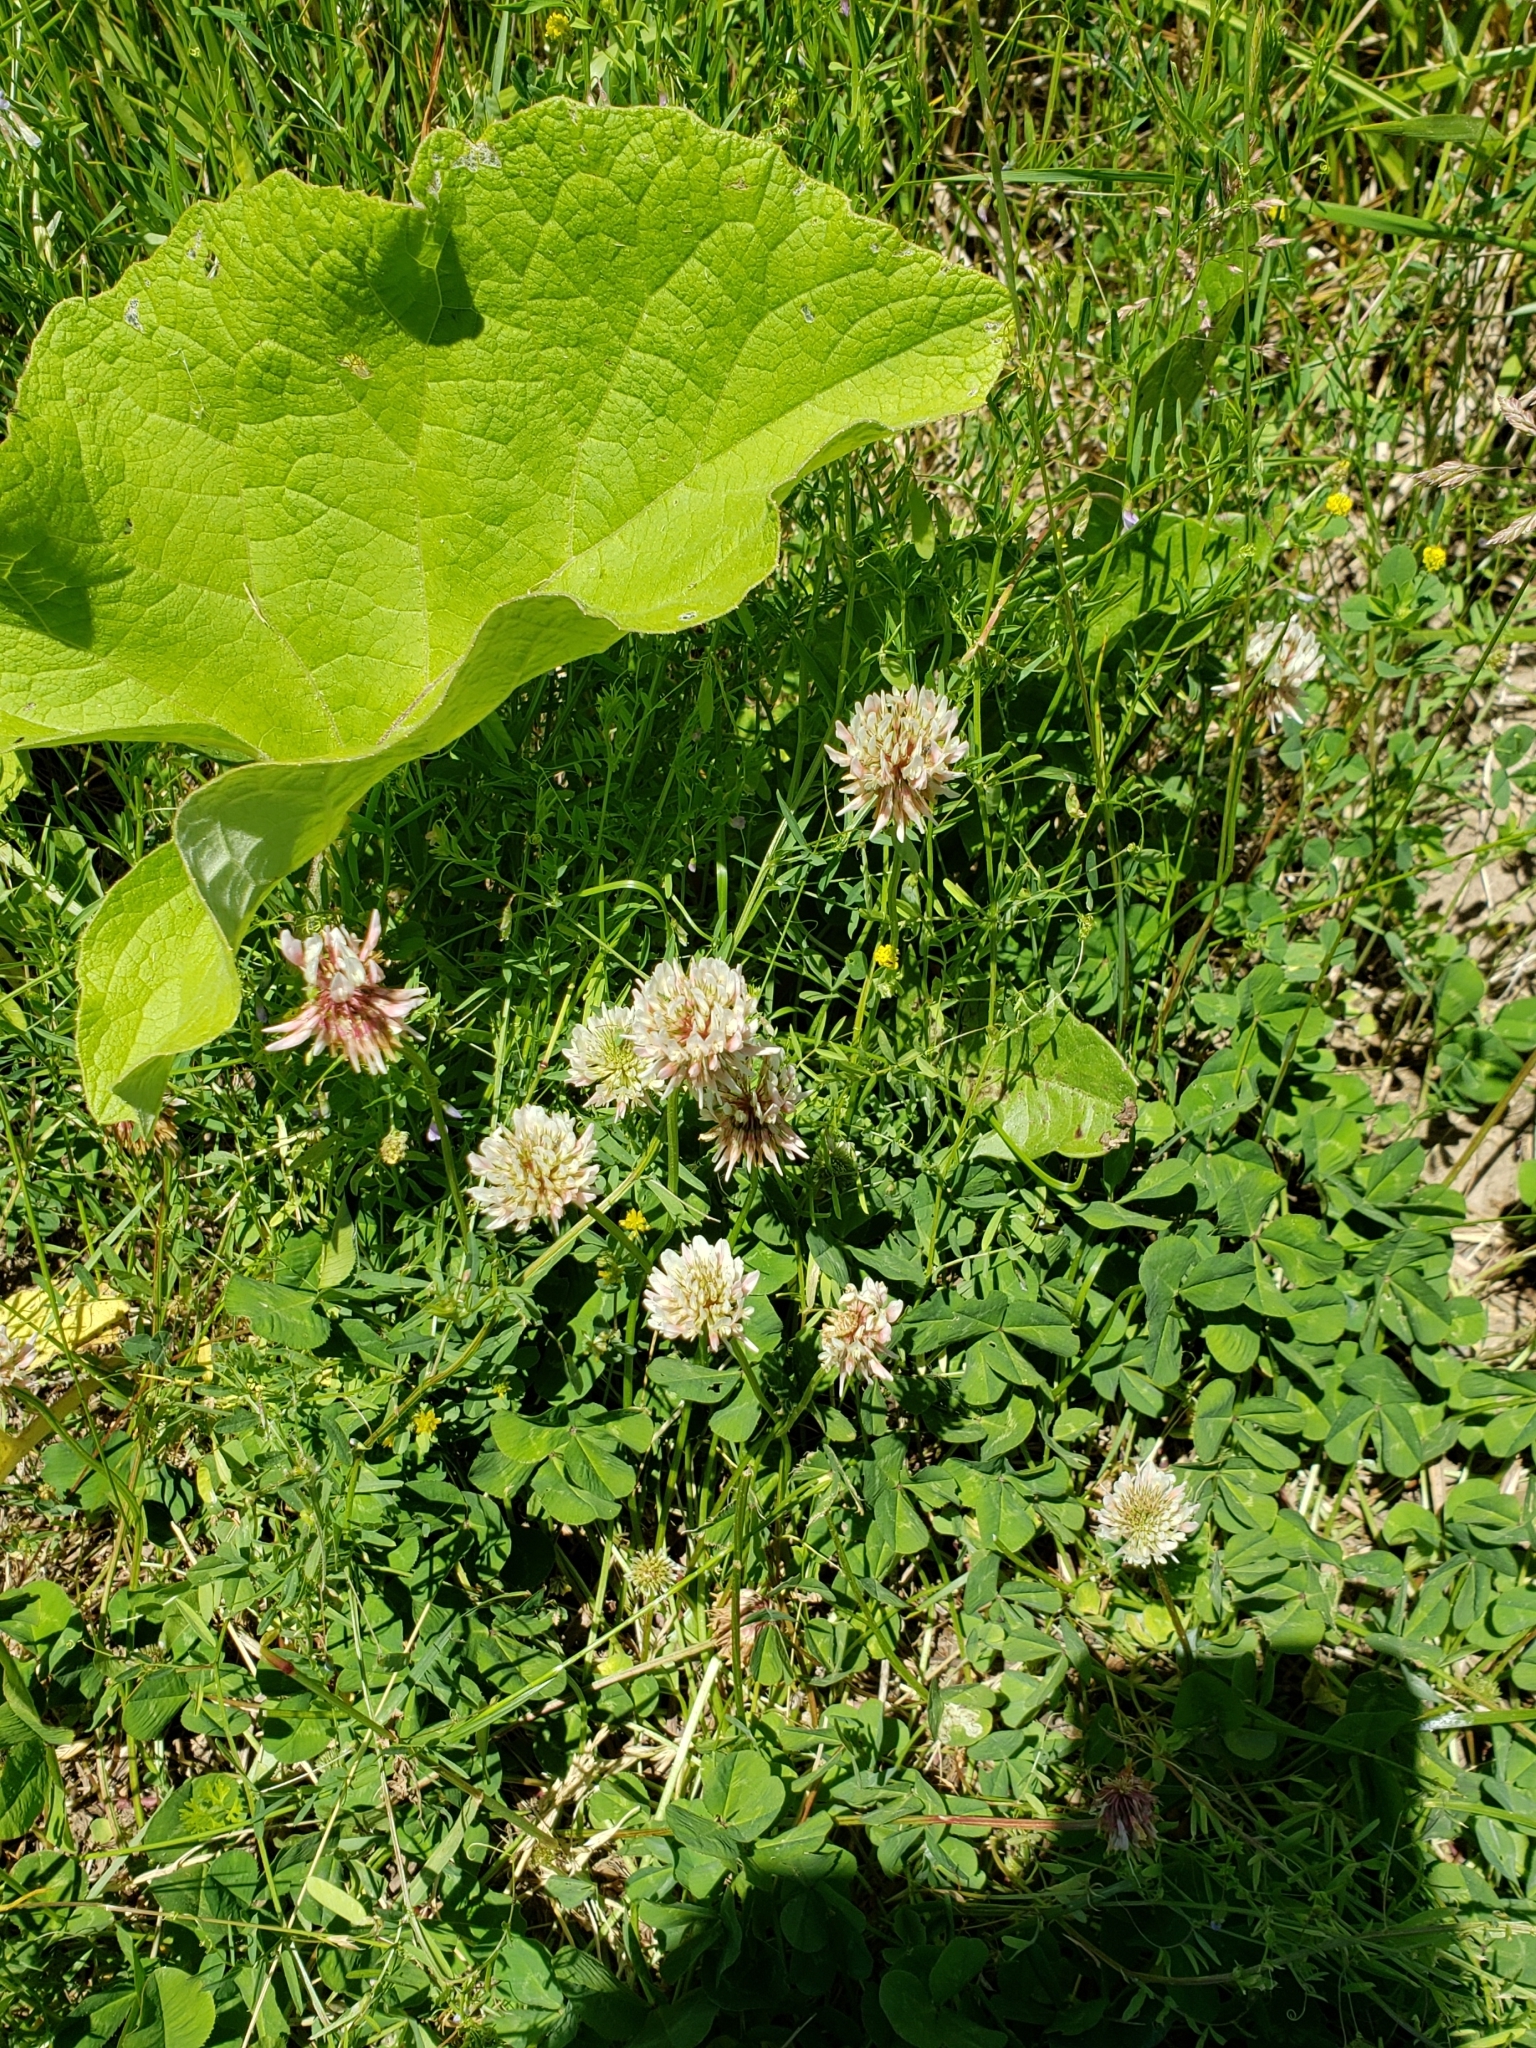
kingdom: Plantae
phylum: Tracheophyta
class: Magnoliopsida
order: Fabales
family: Fabaceae
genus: Trifolium
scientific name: Trifolium repens
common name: White clover
